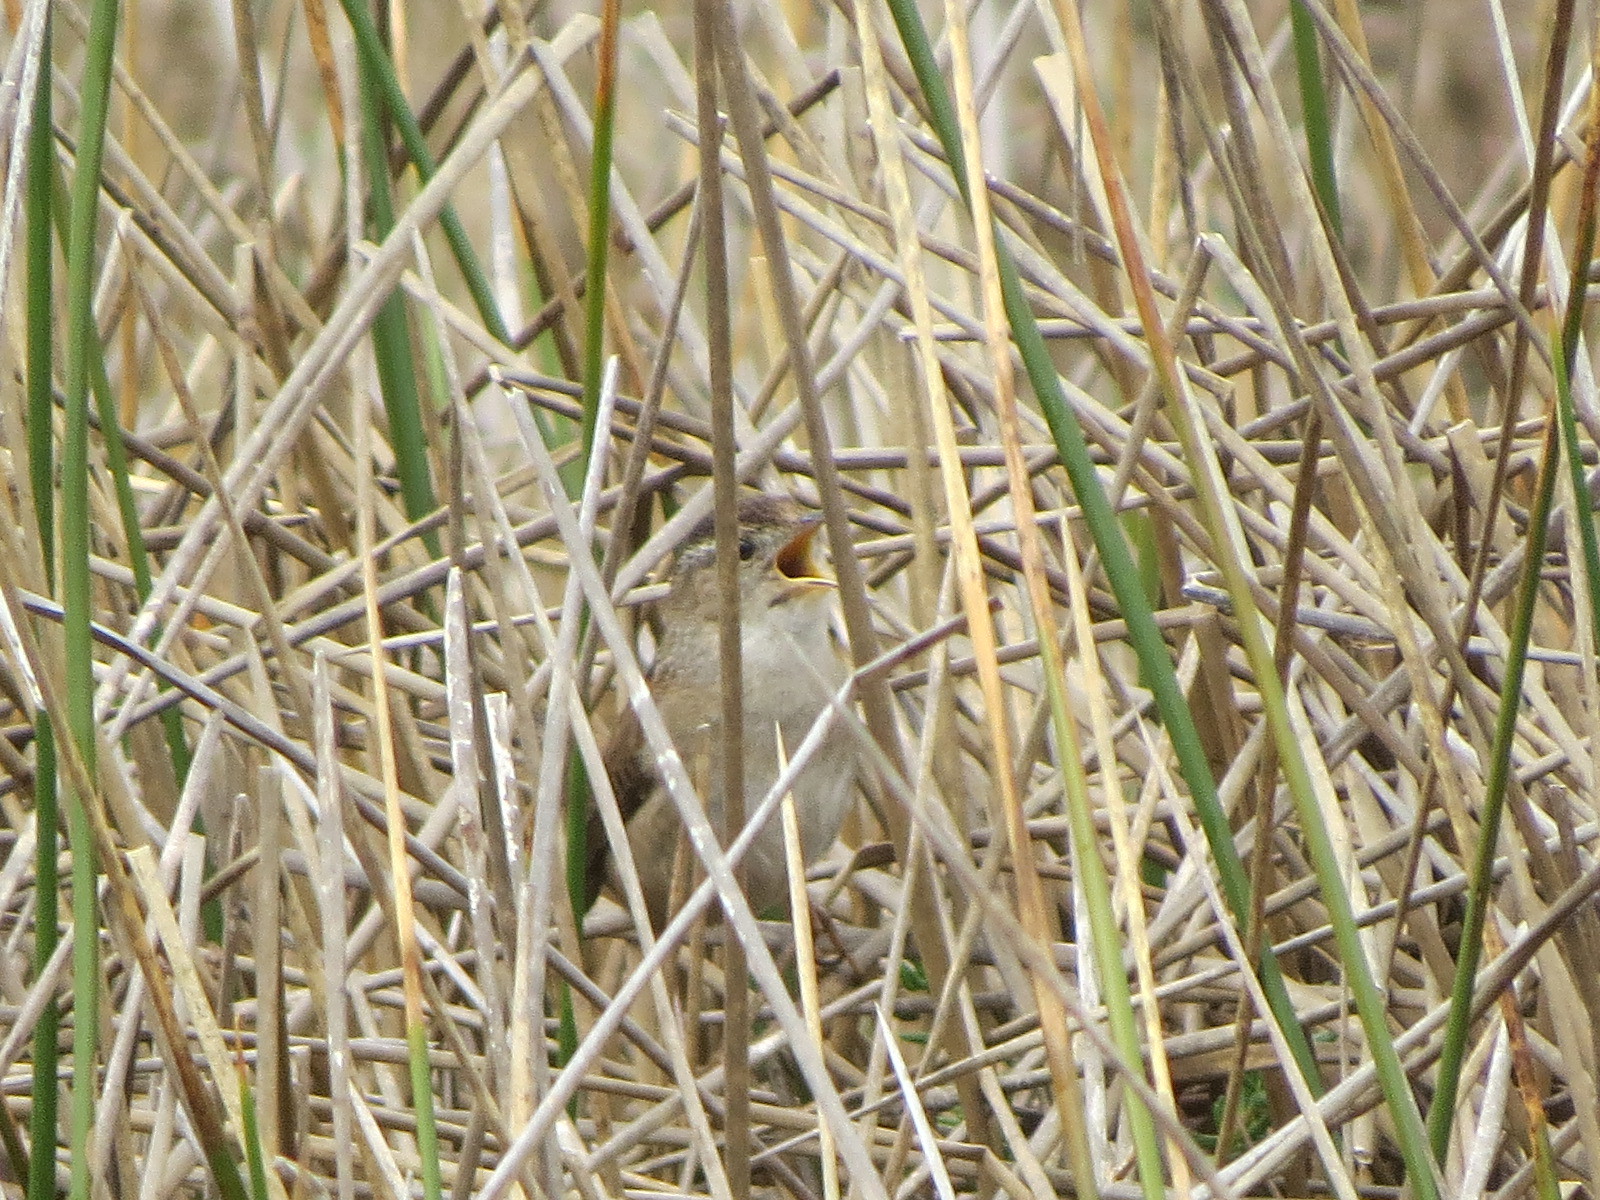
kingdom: Animalia
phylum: Chordata
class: Aves
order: Passeriformes
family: Troglodytidae
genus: Cistothorus
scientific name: Cistothorus palustris
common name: Marsh wren
